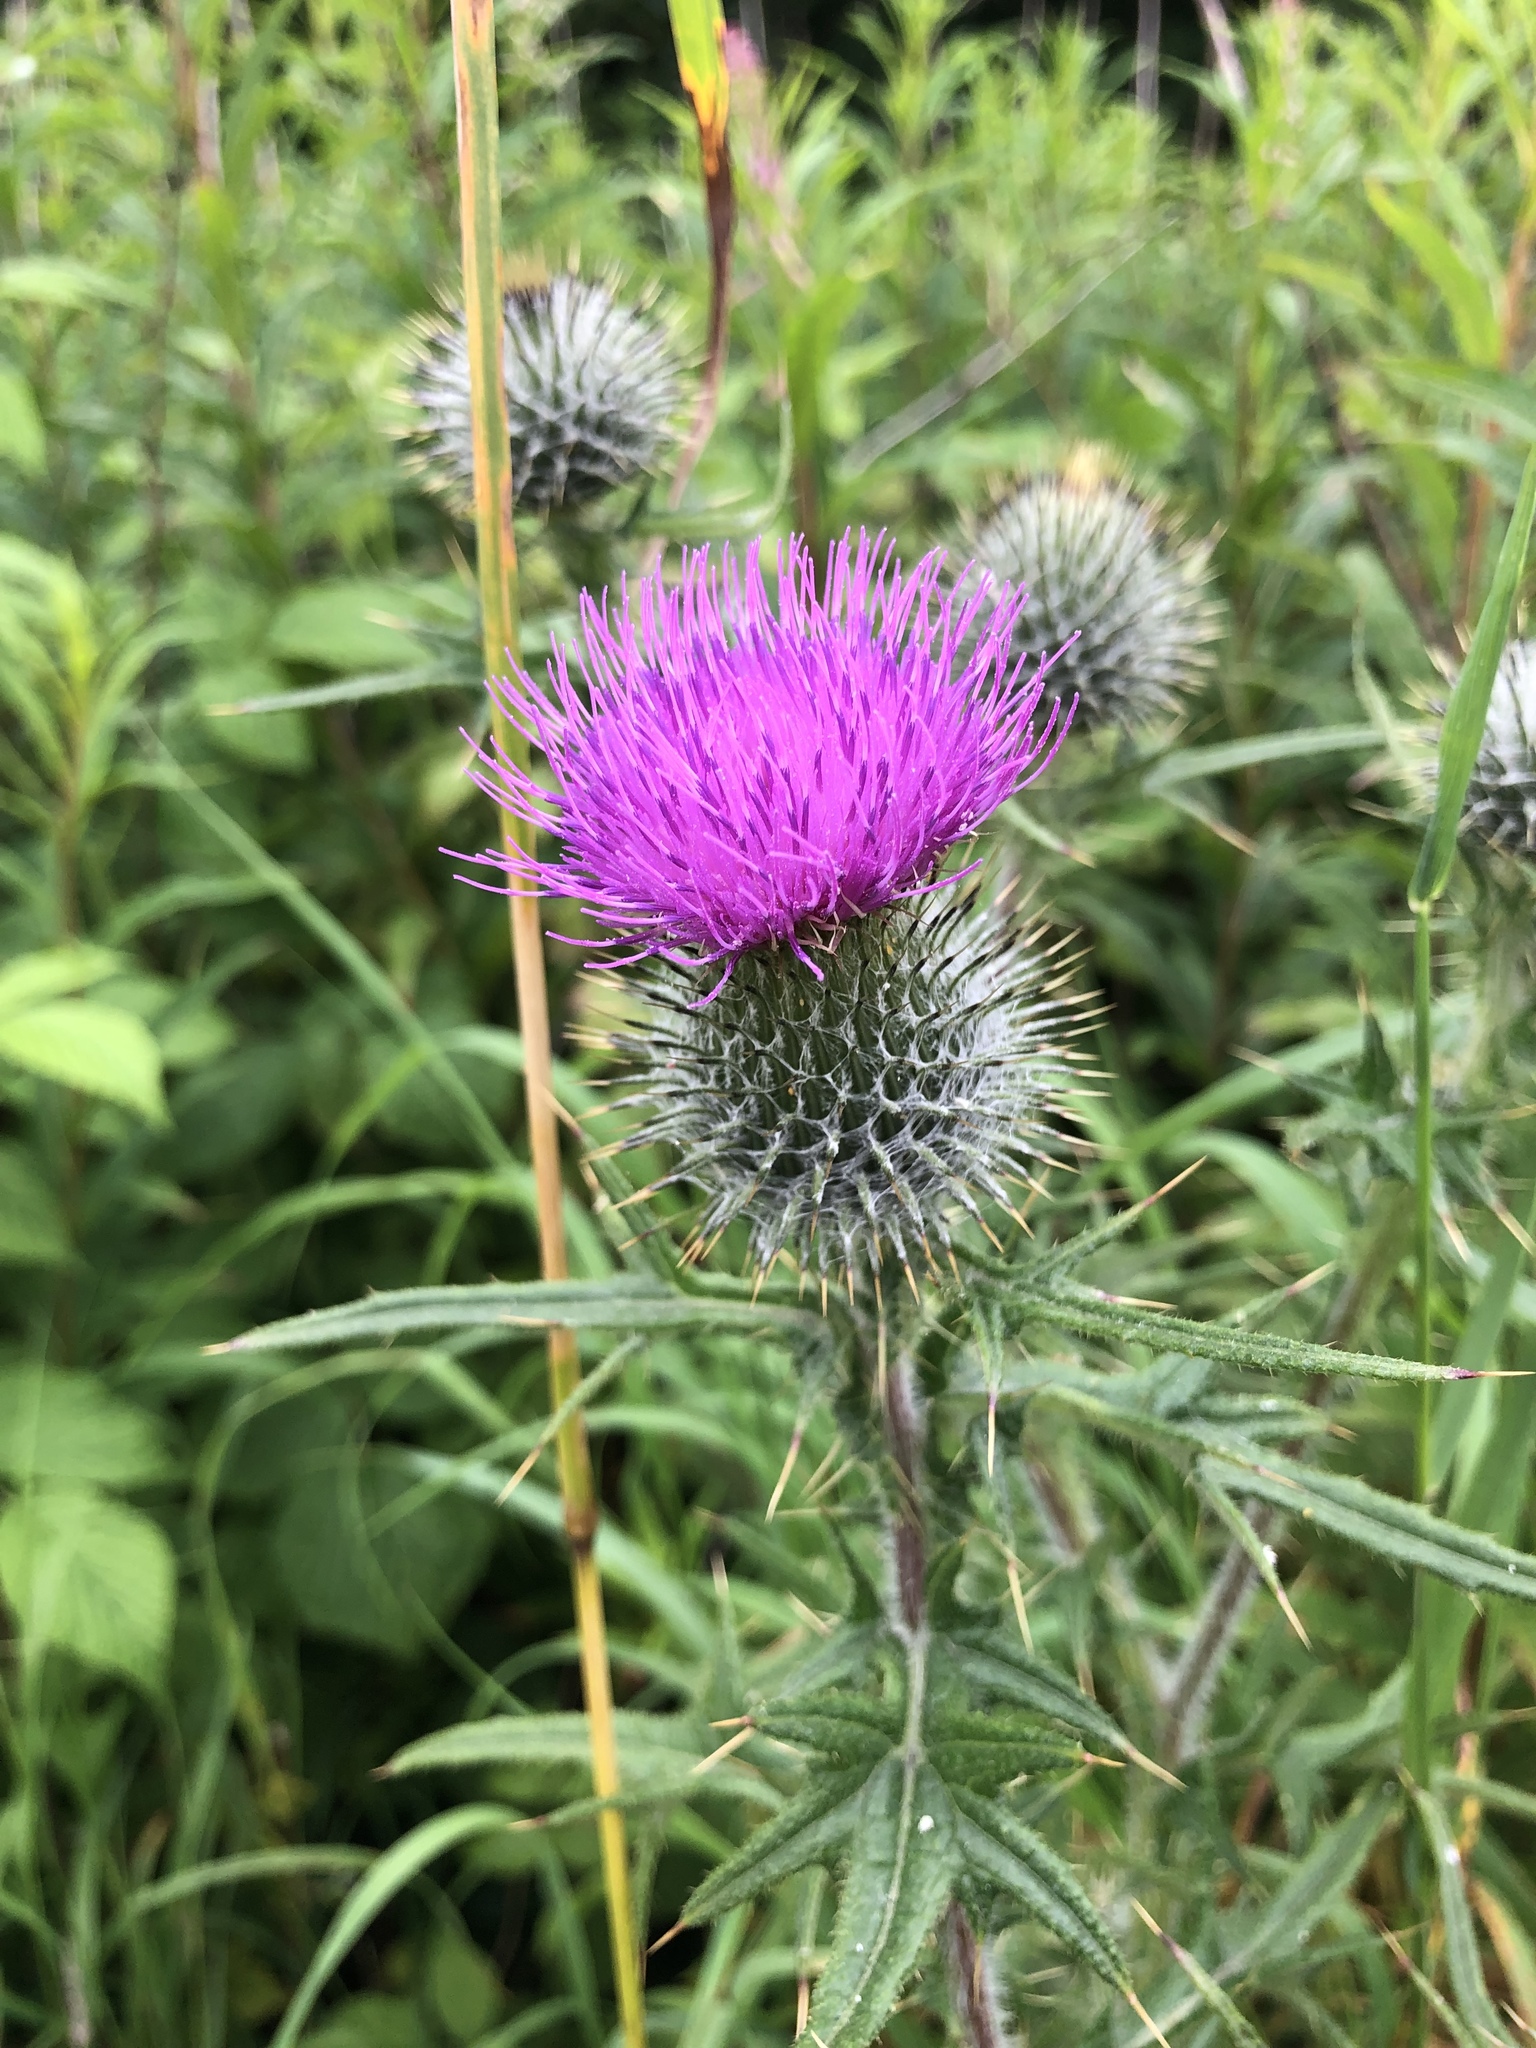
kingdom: Plantae
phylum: Tracheophyta
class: Magnoliopsida
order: Asterales
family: Asteraceae
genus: Cirsium
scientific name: Cirsium vulgare
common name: Bull thistle
